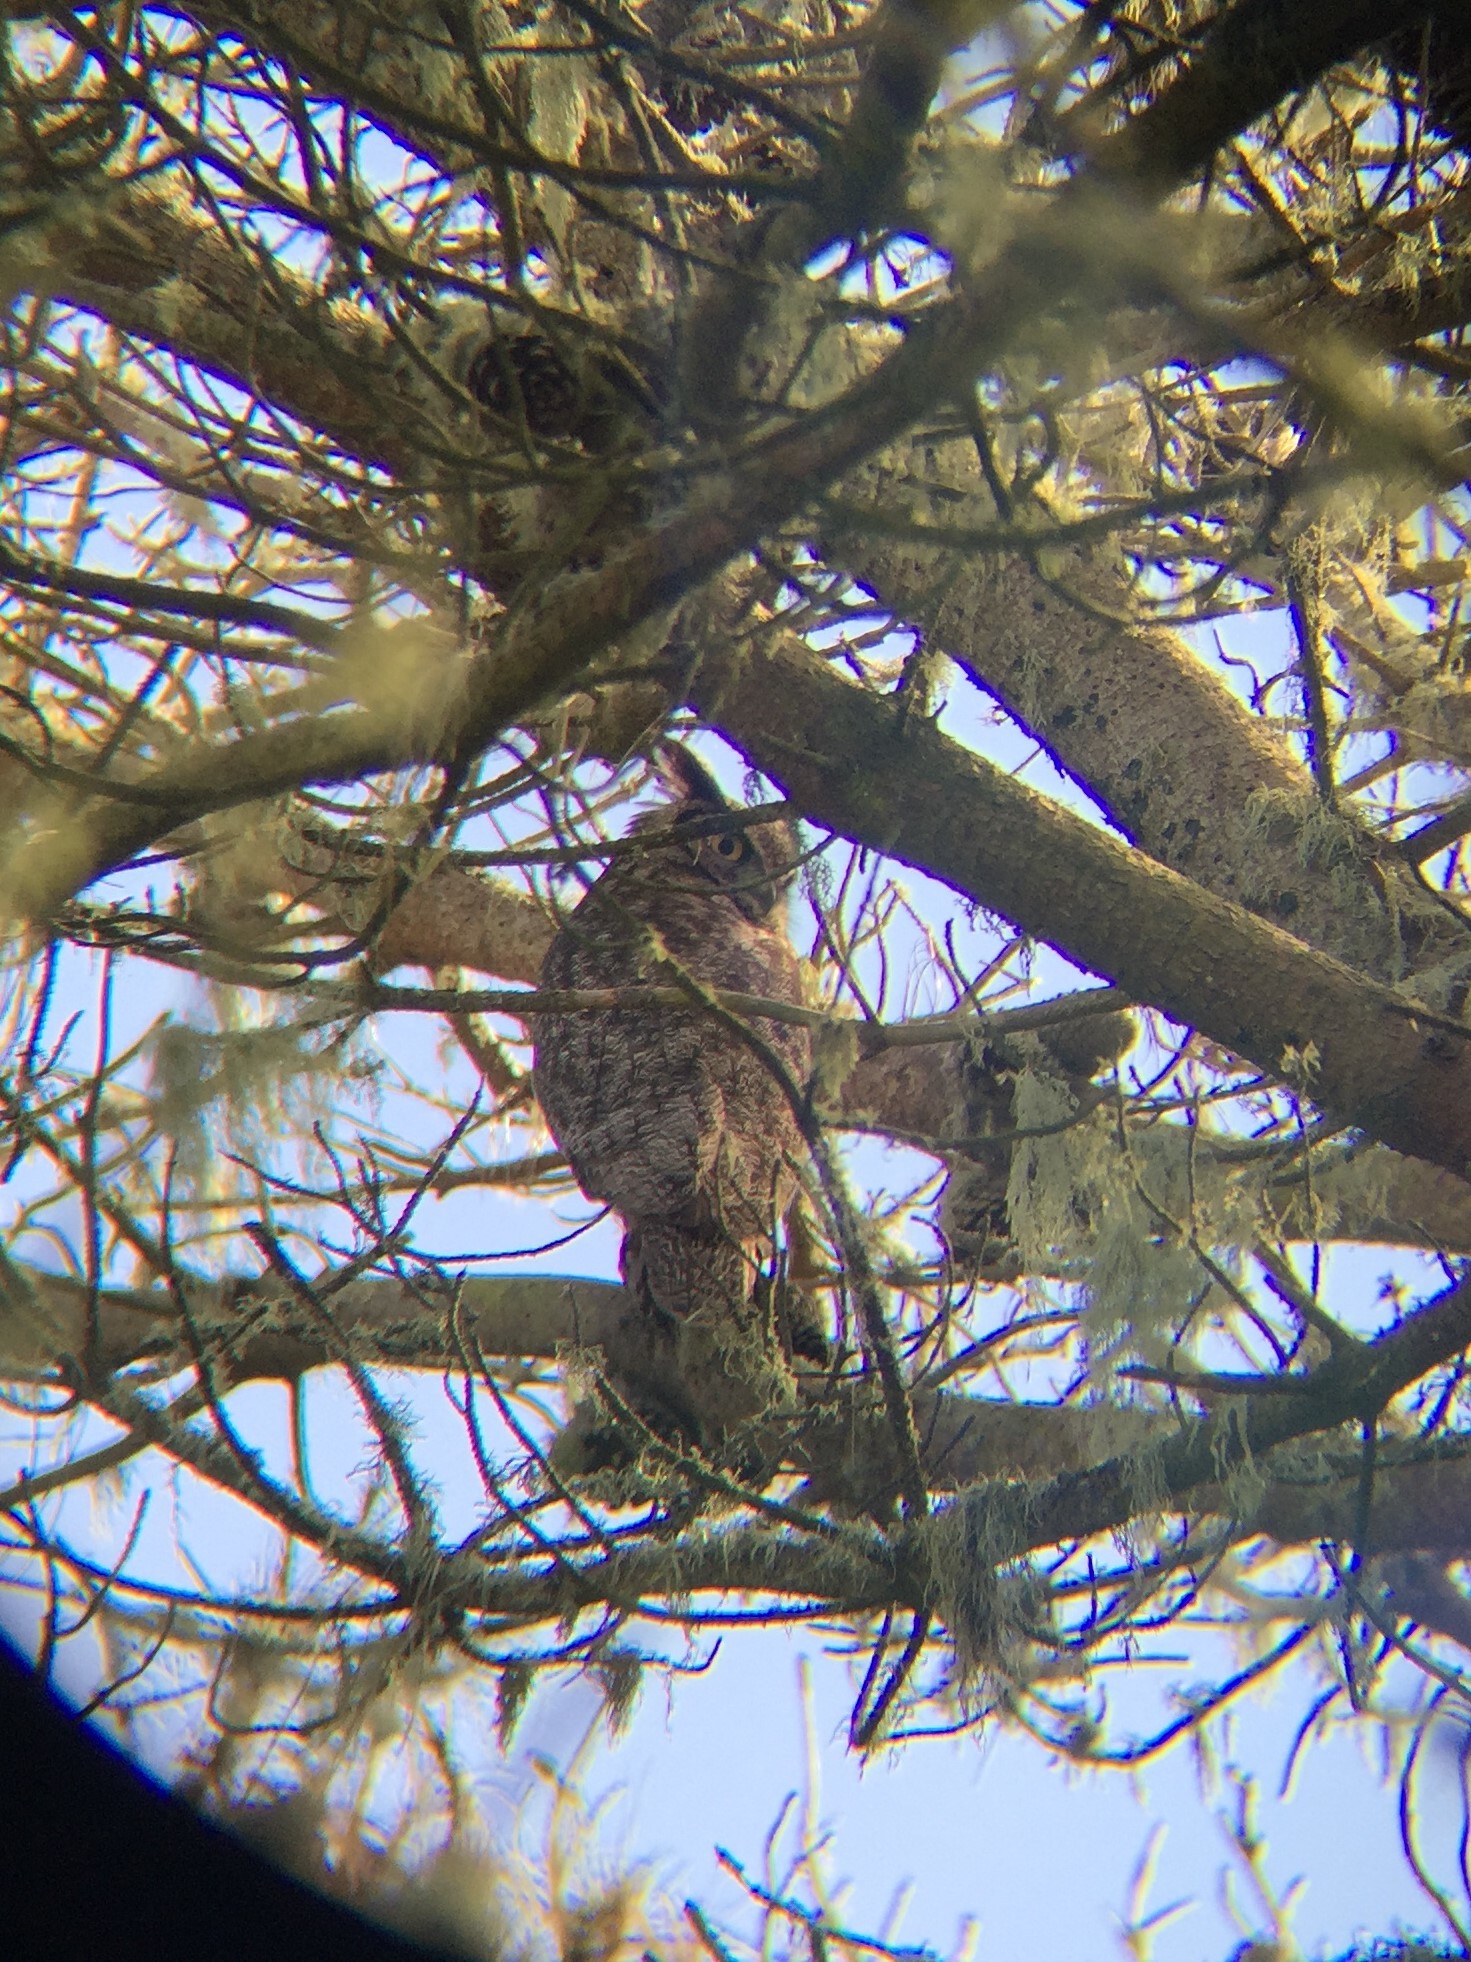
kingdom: Animalia
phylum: Chordata
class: Aves
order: Strigiformes
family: Strigidae
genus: Bubo
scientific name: Bubo virginianus
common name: Great horned owl
